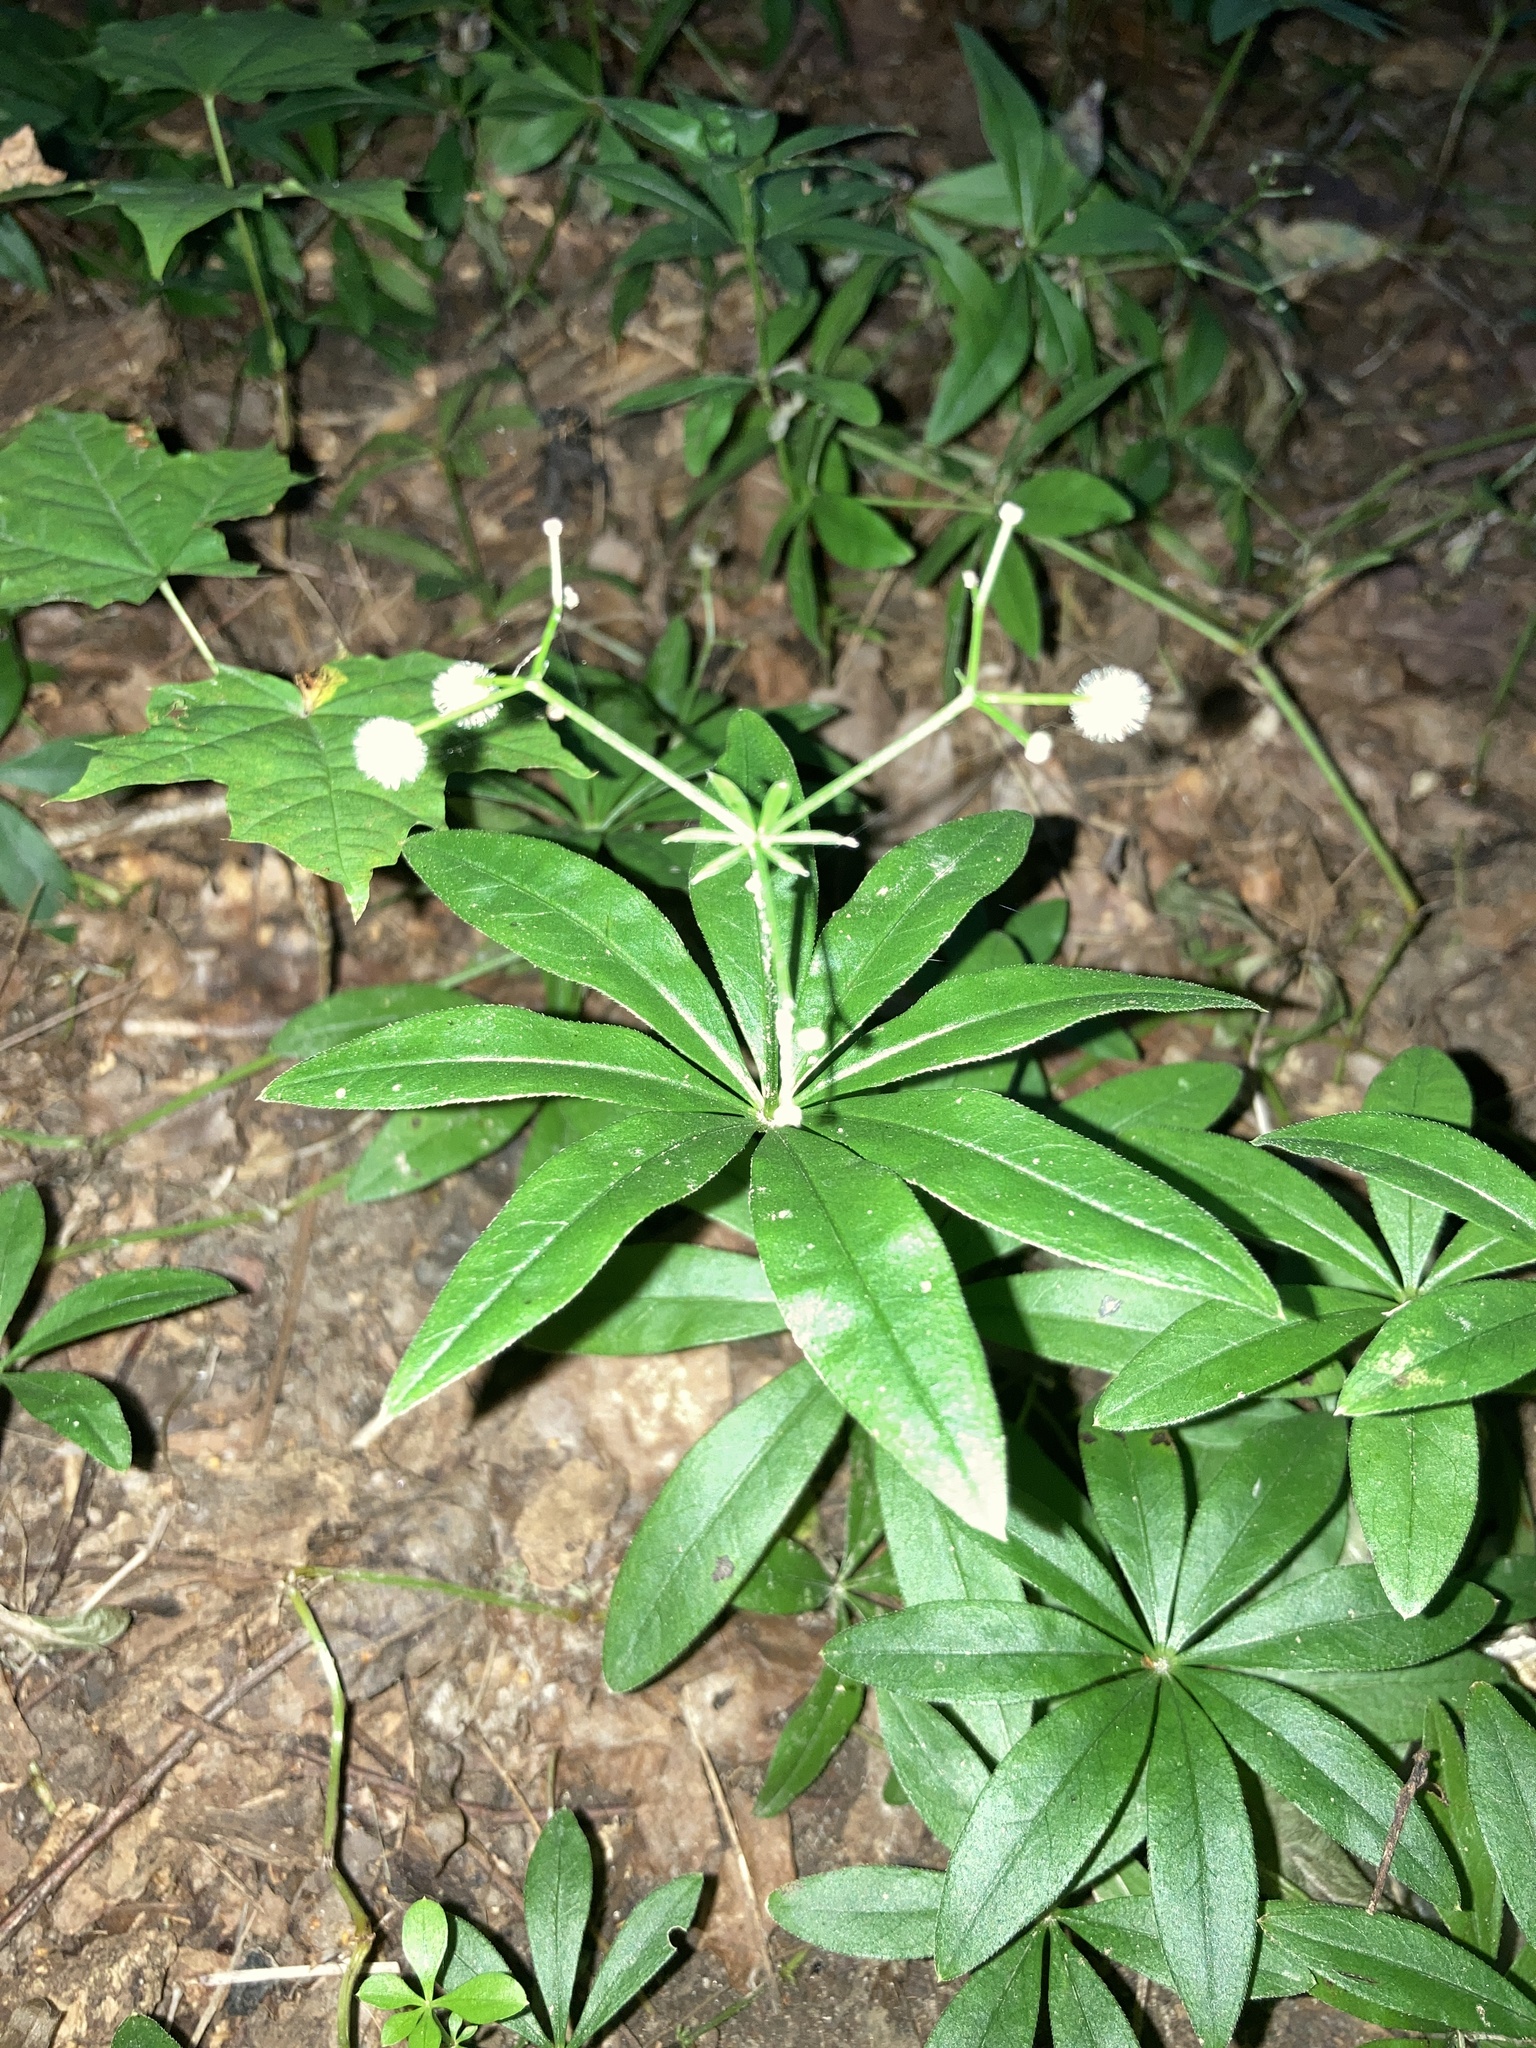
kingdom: Plantae
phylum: Tracheophyta
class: Magnoliopsida
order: Gentianales
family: Rubiaceae
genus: Galium
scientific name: Galium odoratum
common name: Sweet woodruff
